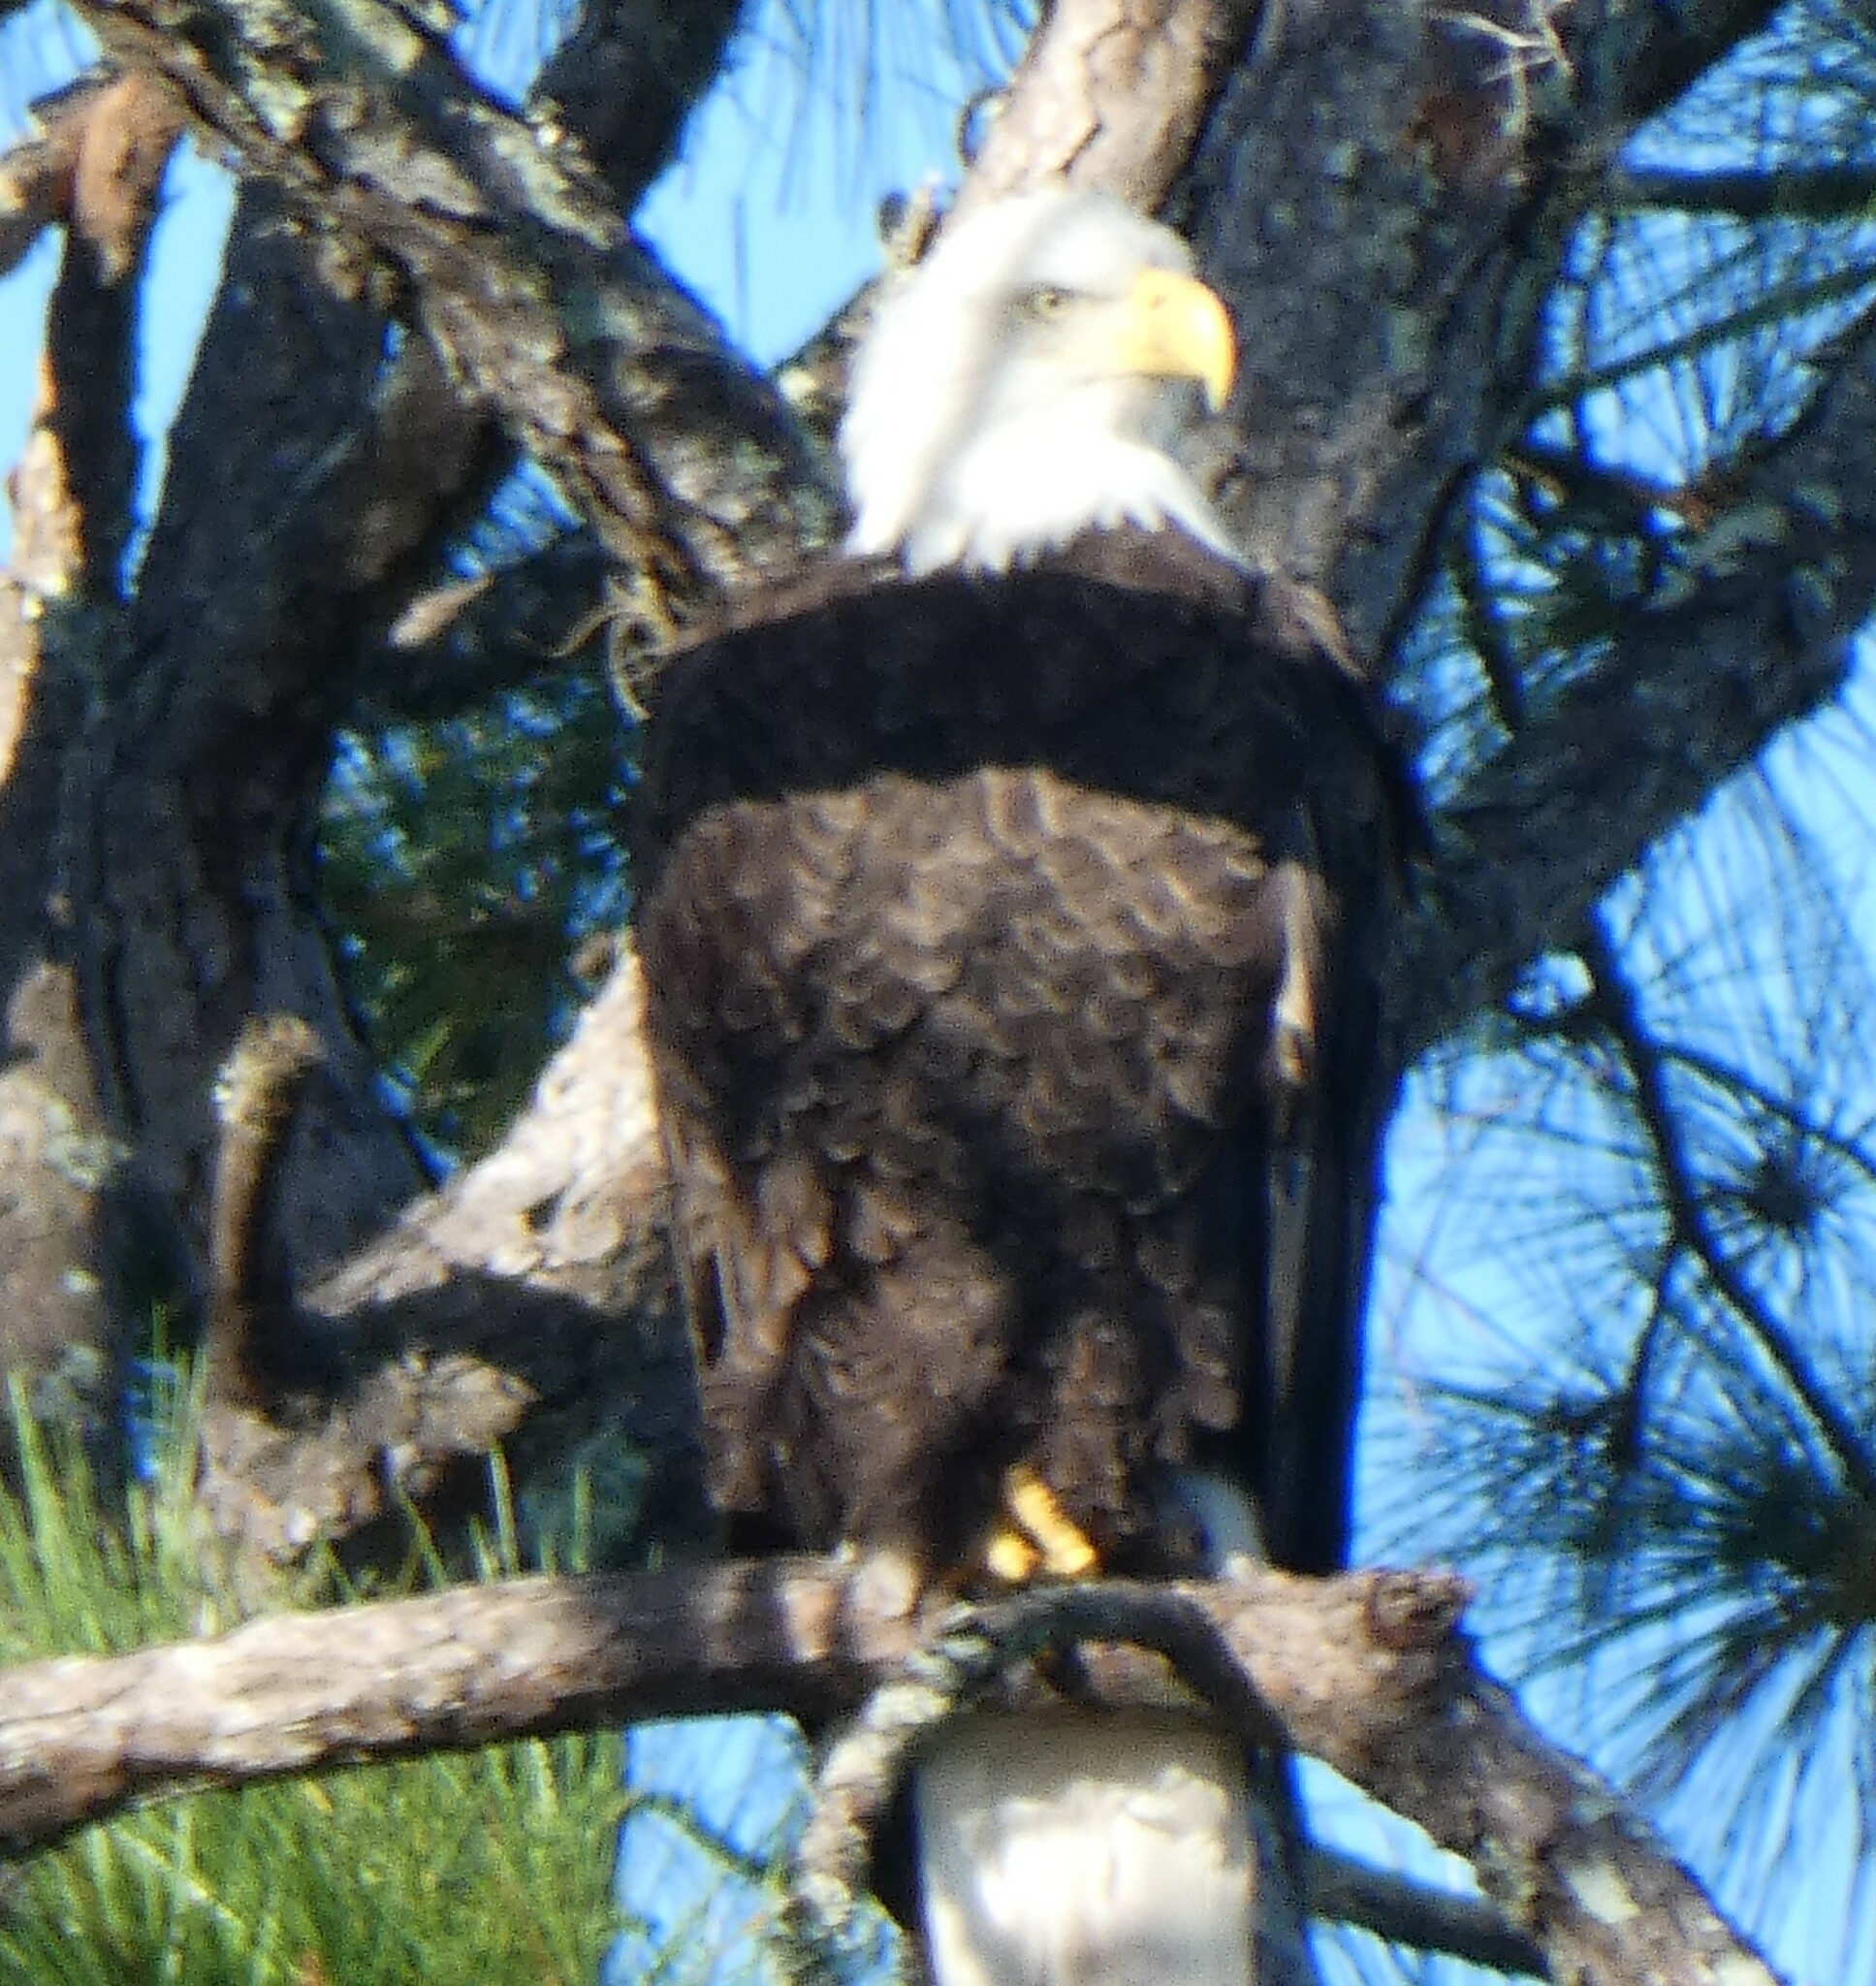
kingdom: Animalia
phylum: Chordata
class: Aves
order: Accipitriformes
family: Accipitridae
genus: Haliaeetus
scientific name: Haliaeetus leucocephalus
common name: Bald eagle
